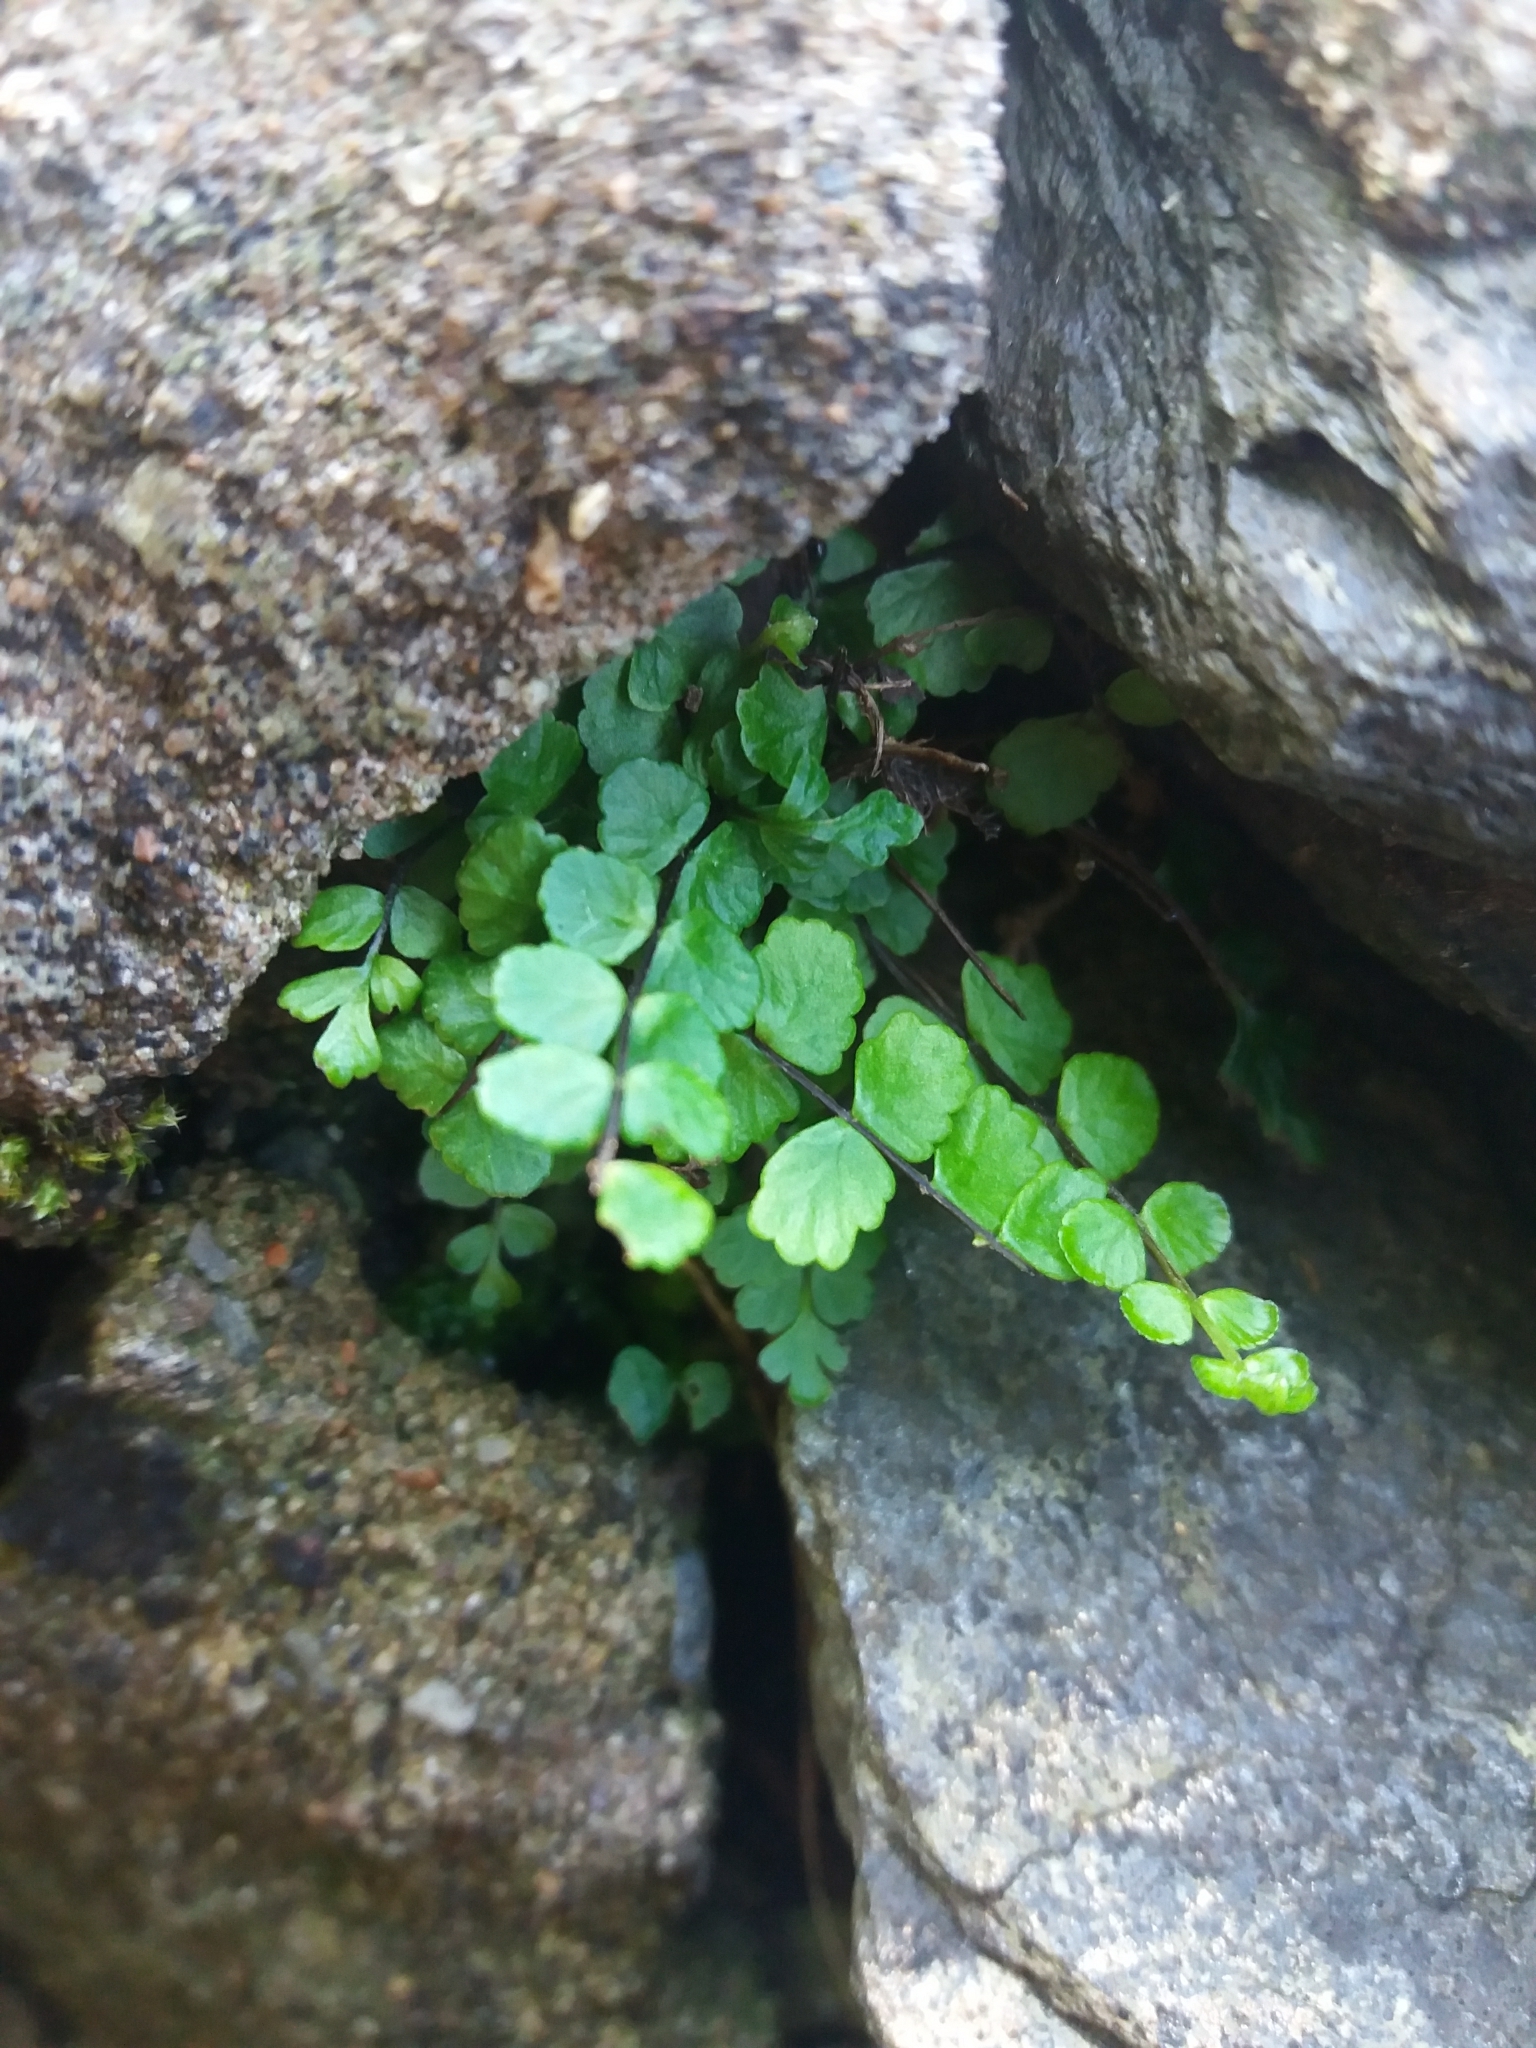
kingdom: Plantae
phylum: Tracheophyta
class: Polypodiopsida
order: Polypodiales
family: Aspleniaceae
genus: Asplenium
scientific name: Asplenium trichomanes
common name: Maidenhair spleenwort
